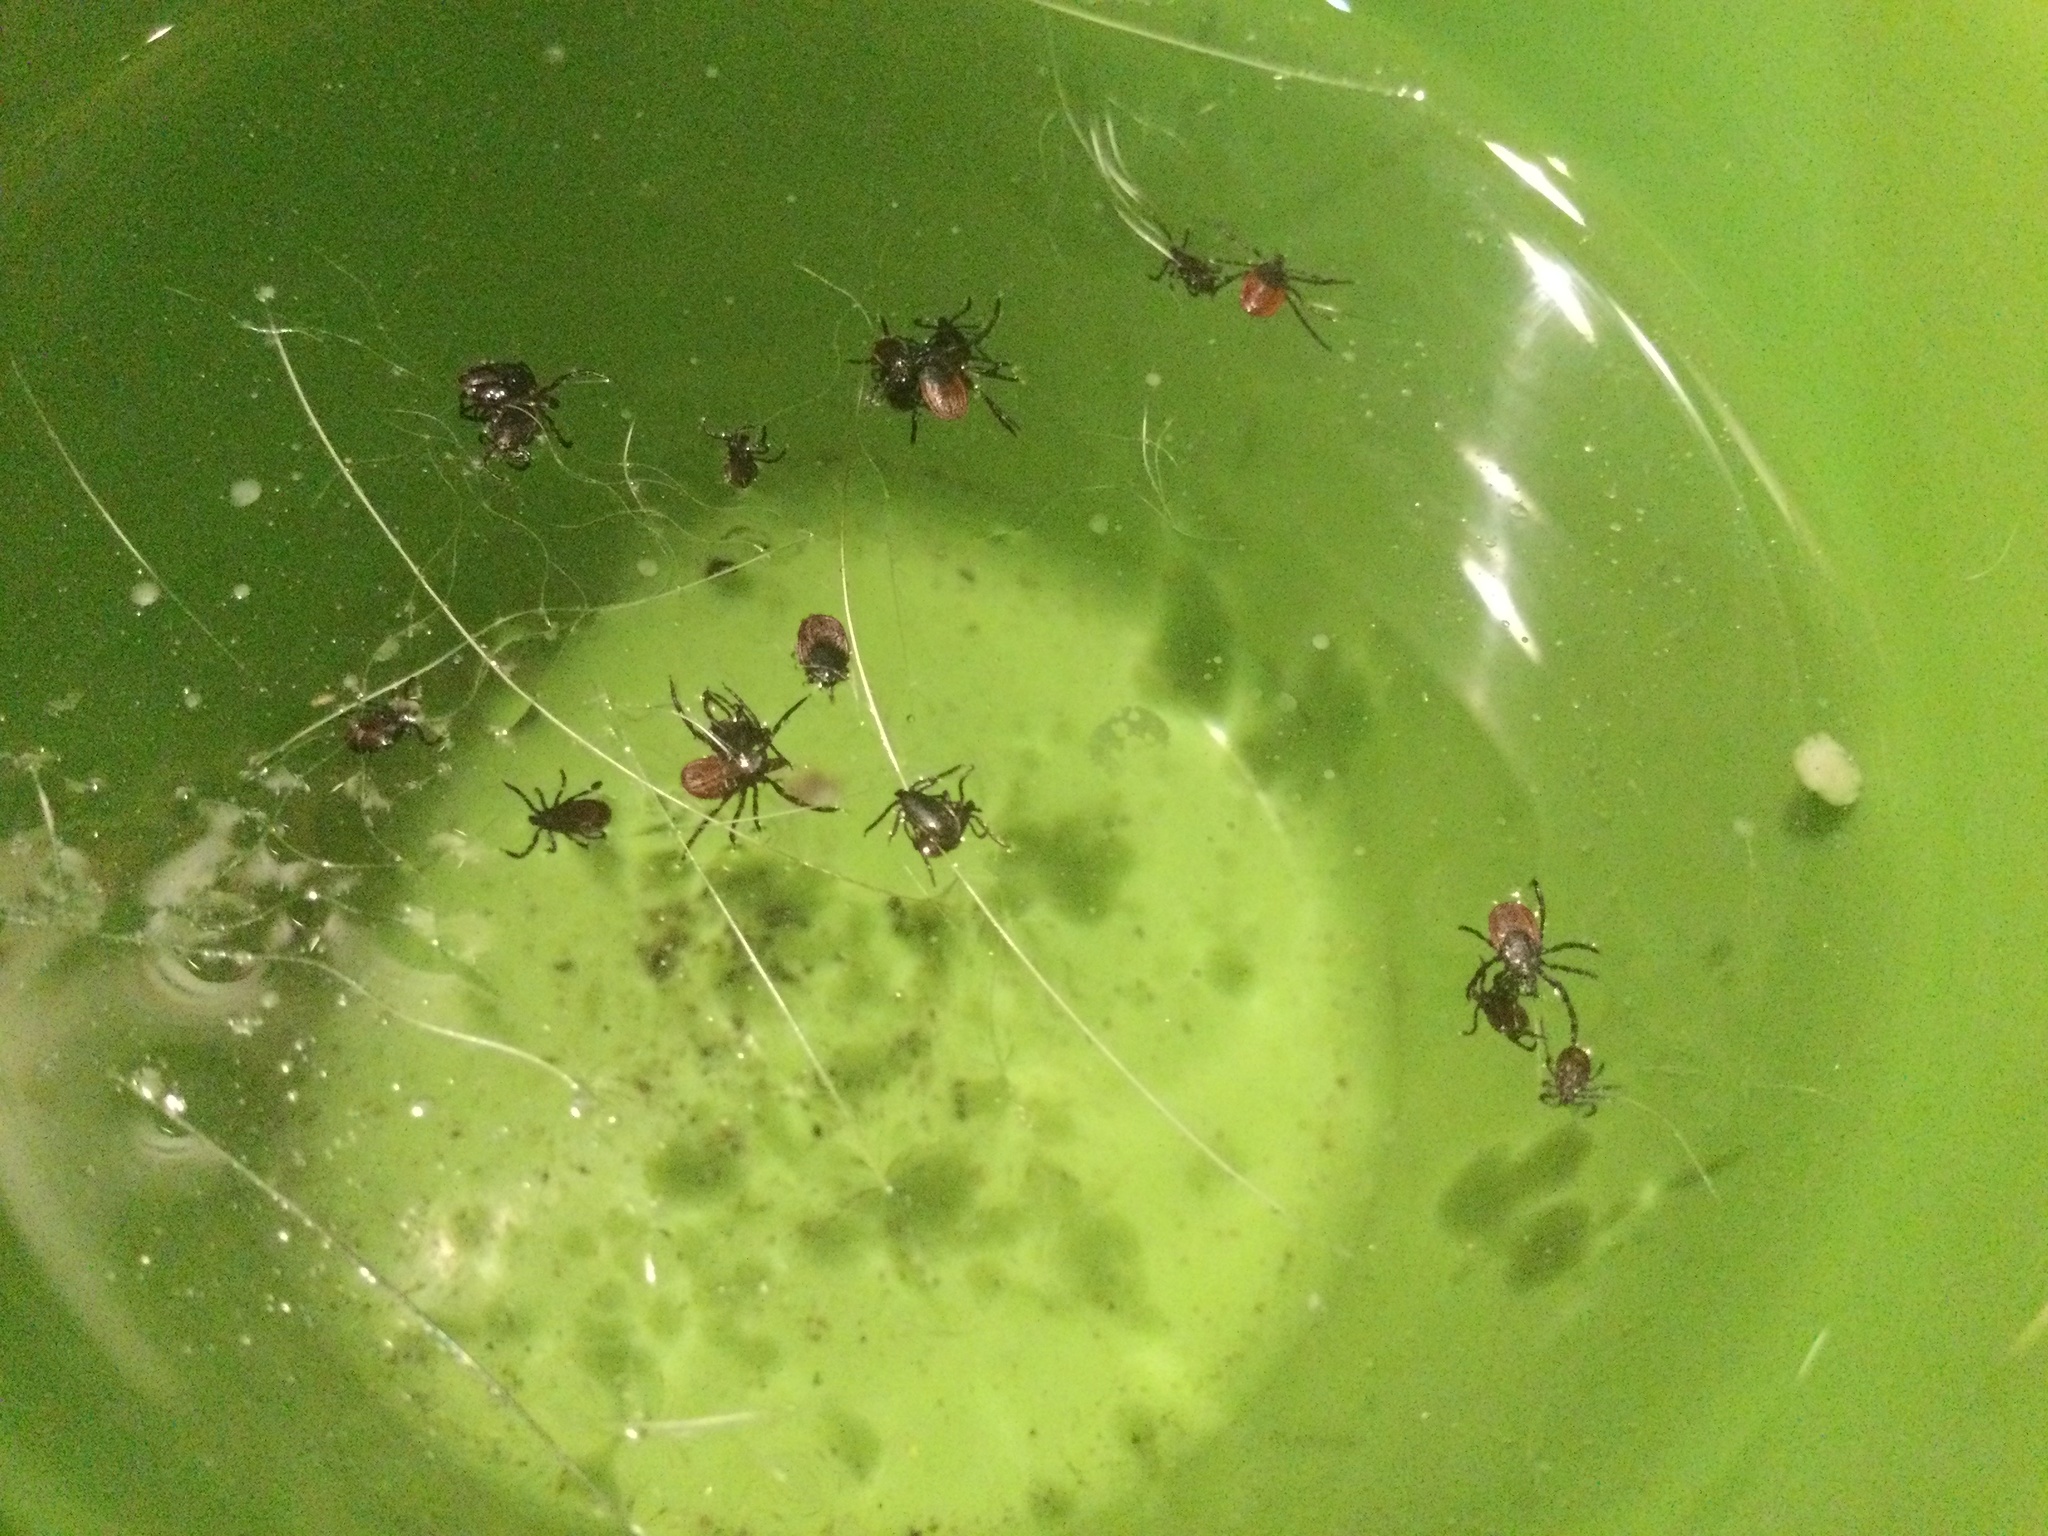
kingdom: Animalia
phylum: Arthropoda
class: Arachnida
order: Ixodida
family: Ixodidae
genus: Ixodes
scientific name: Ixodes pacificus
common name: California black-legged tick
